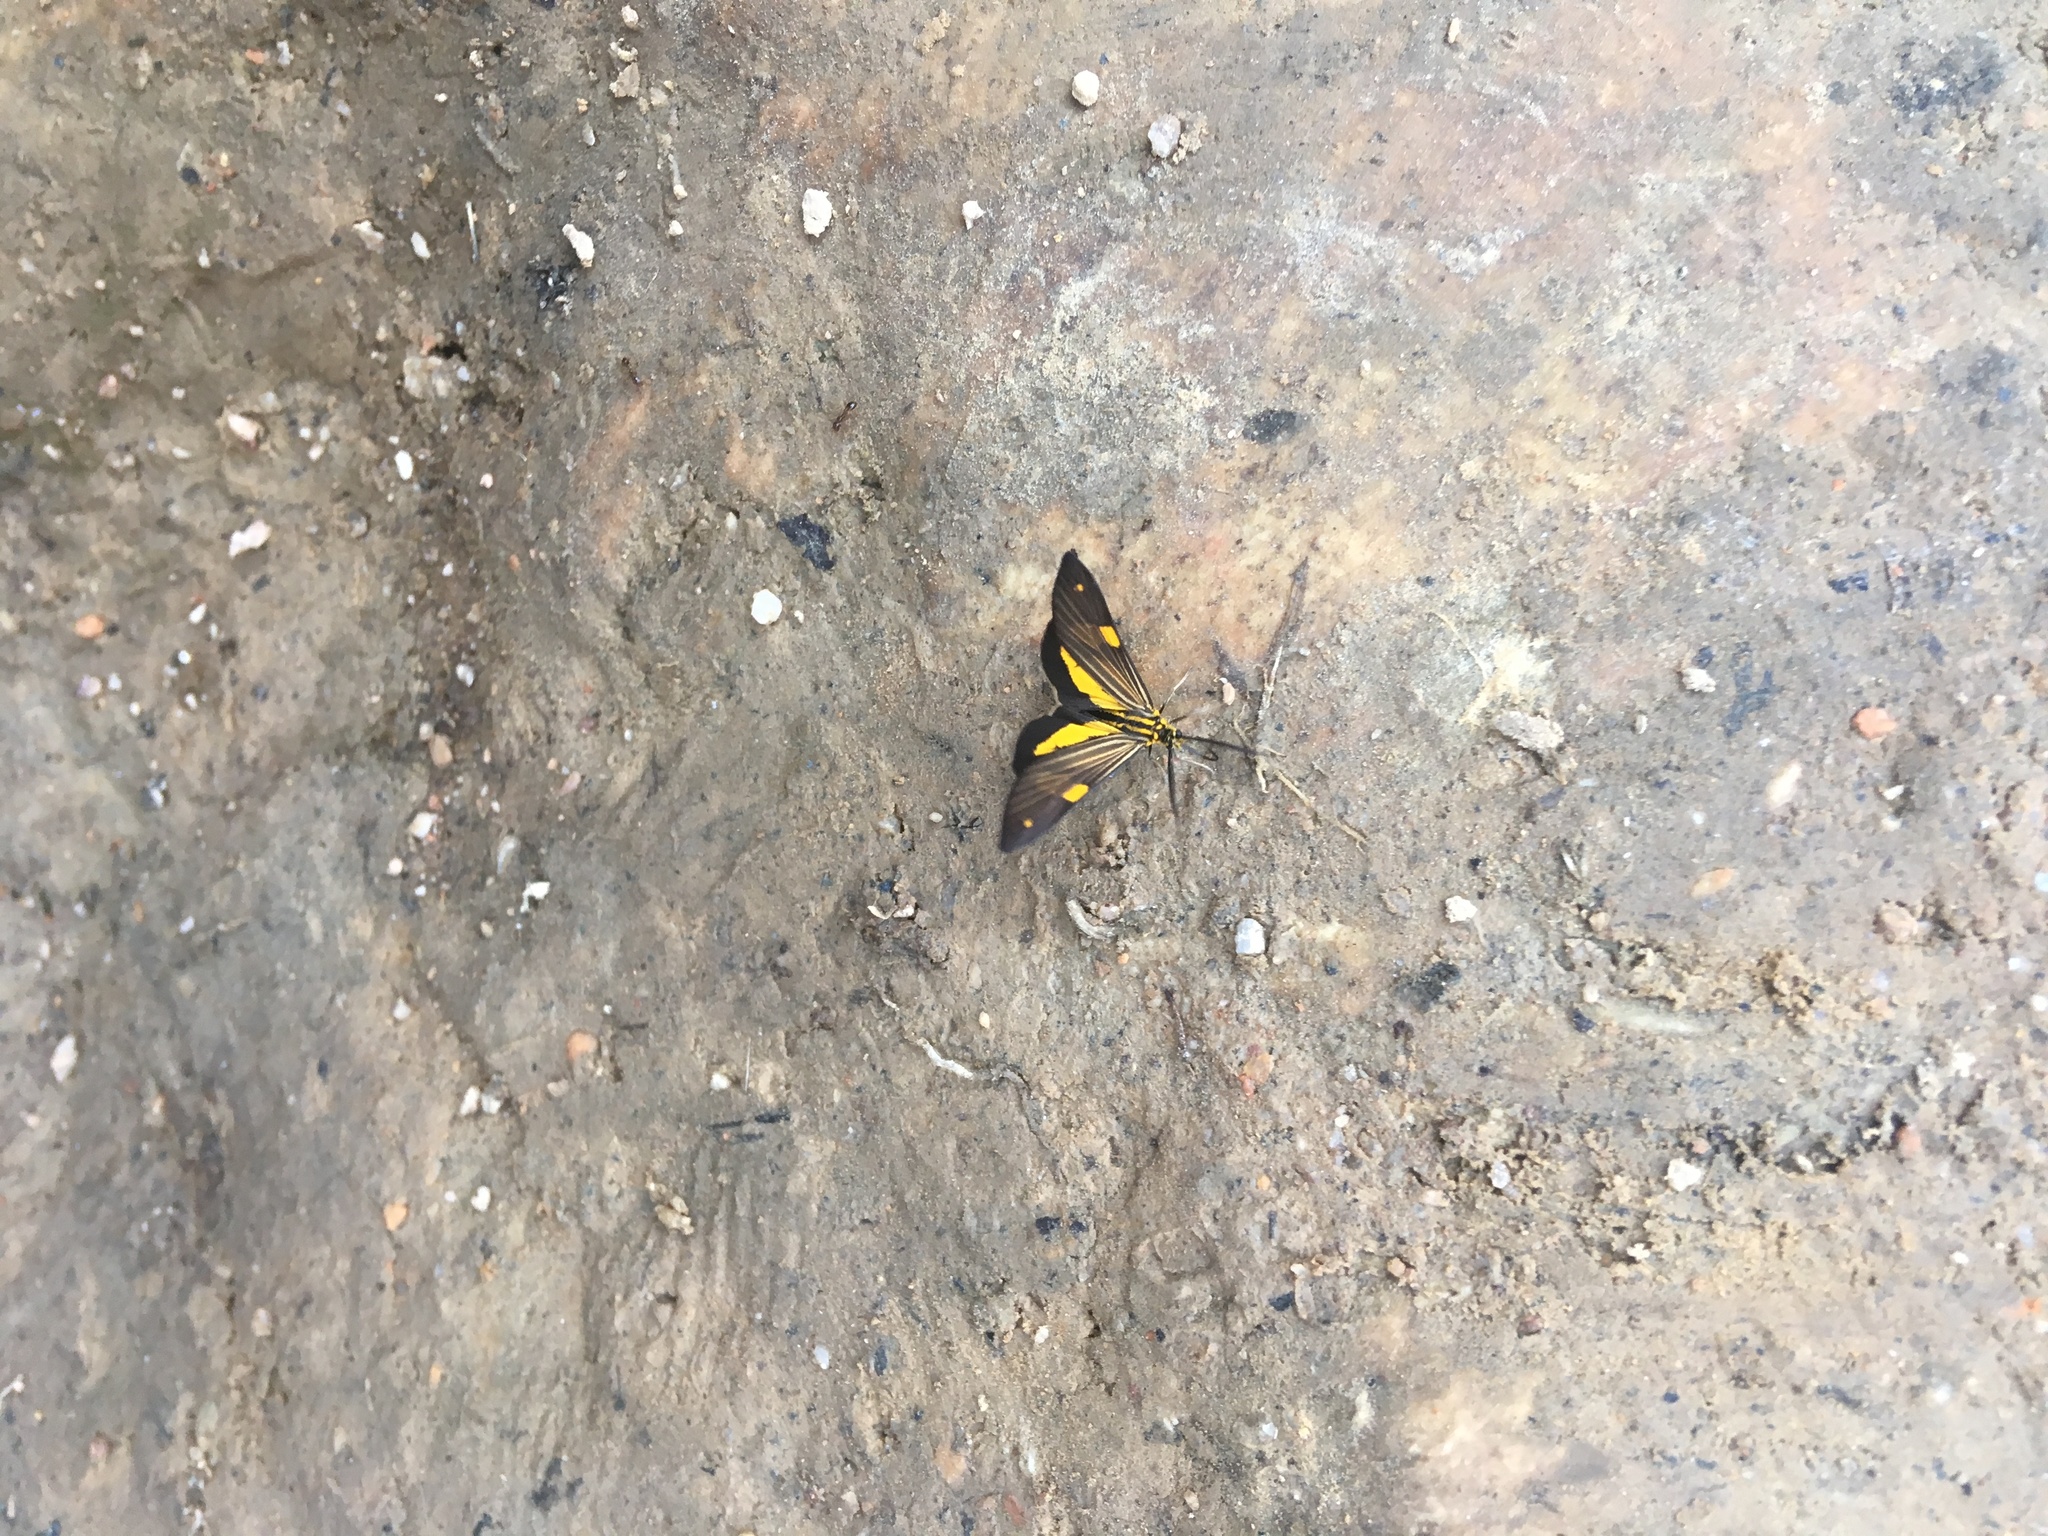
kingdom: Animalia
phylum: Arthropoda
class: Insecta
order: Lepidoptera
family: Notodontidae
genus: Phaeochlaena
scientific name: Phaeochlaena
